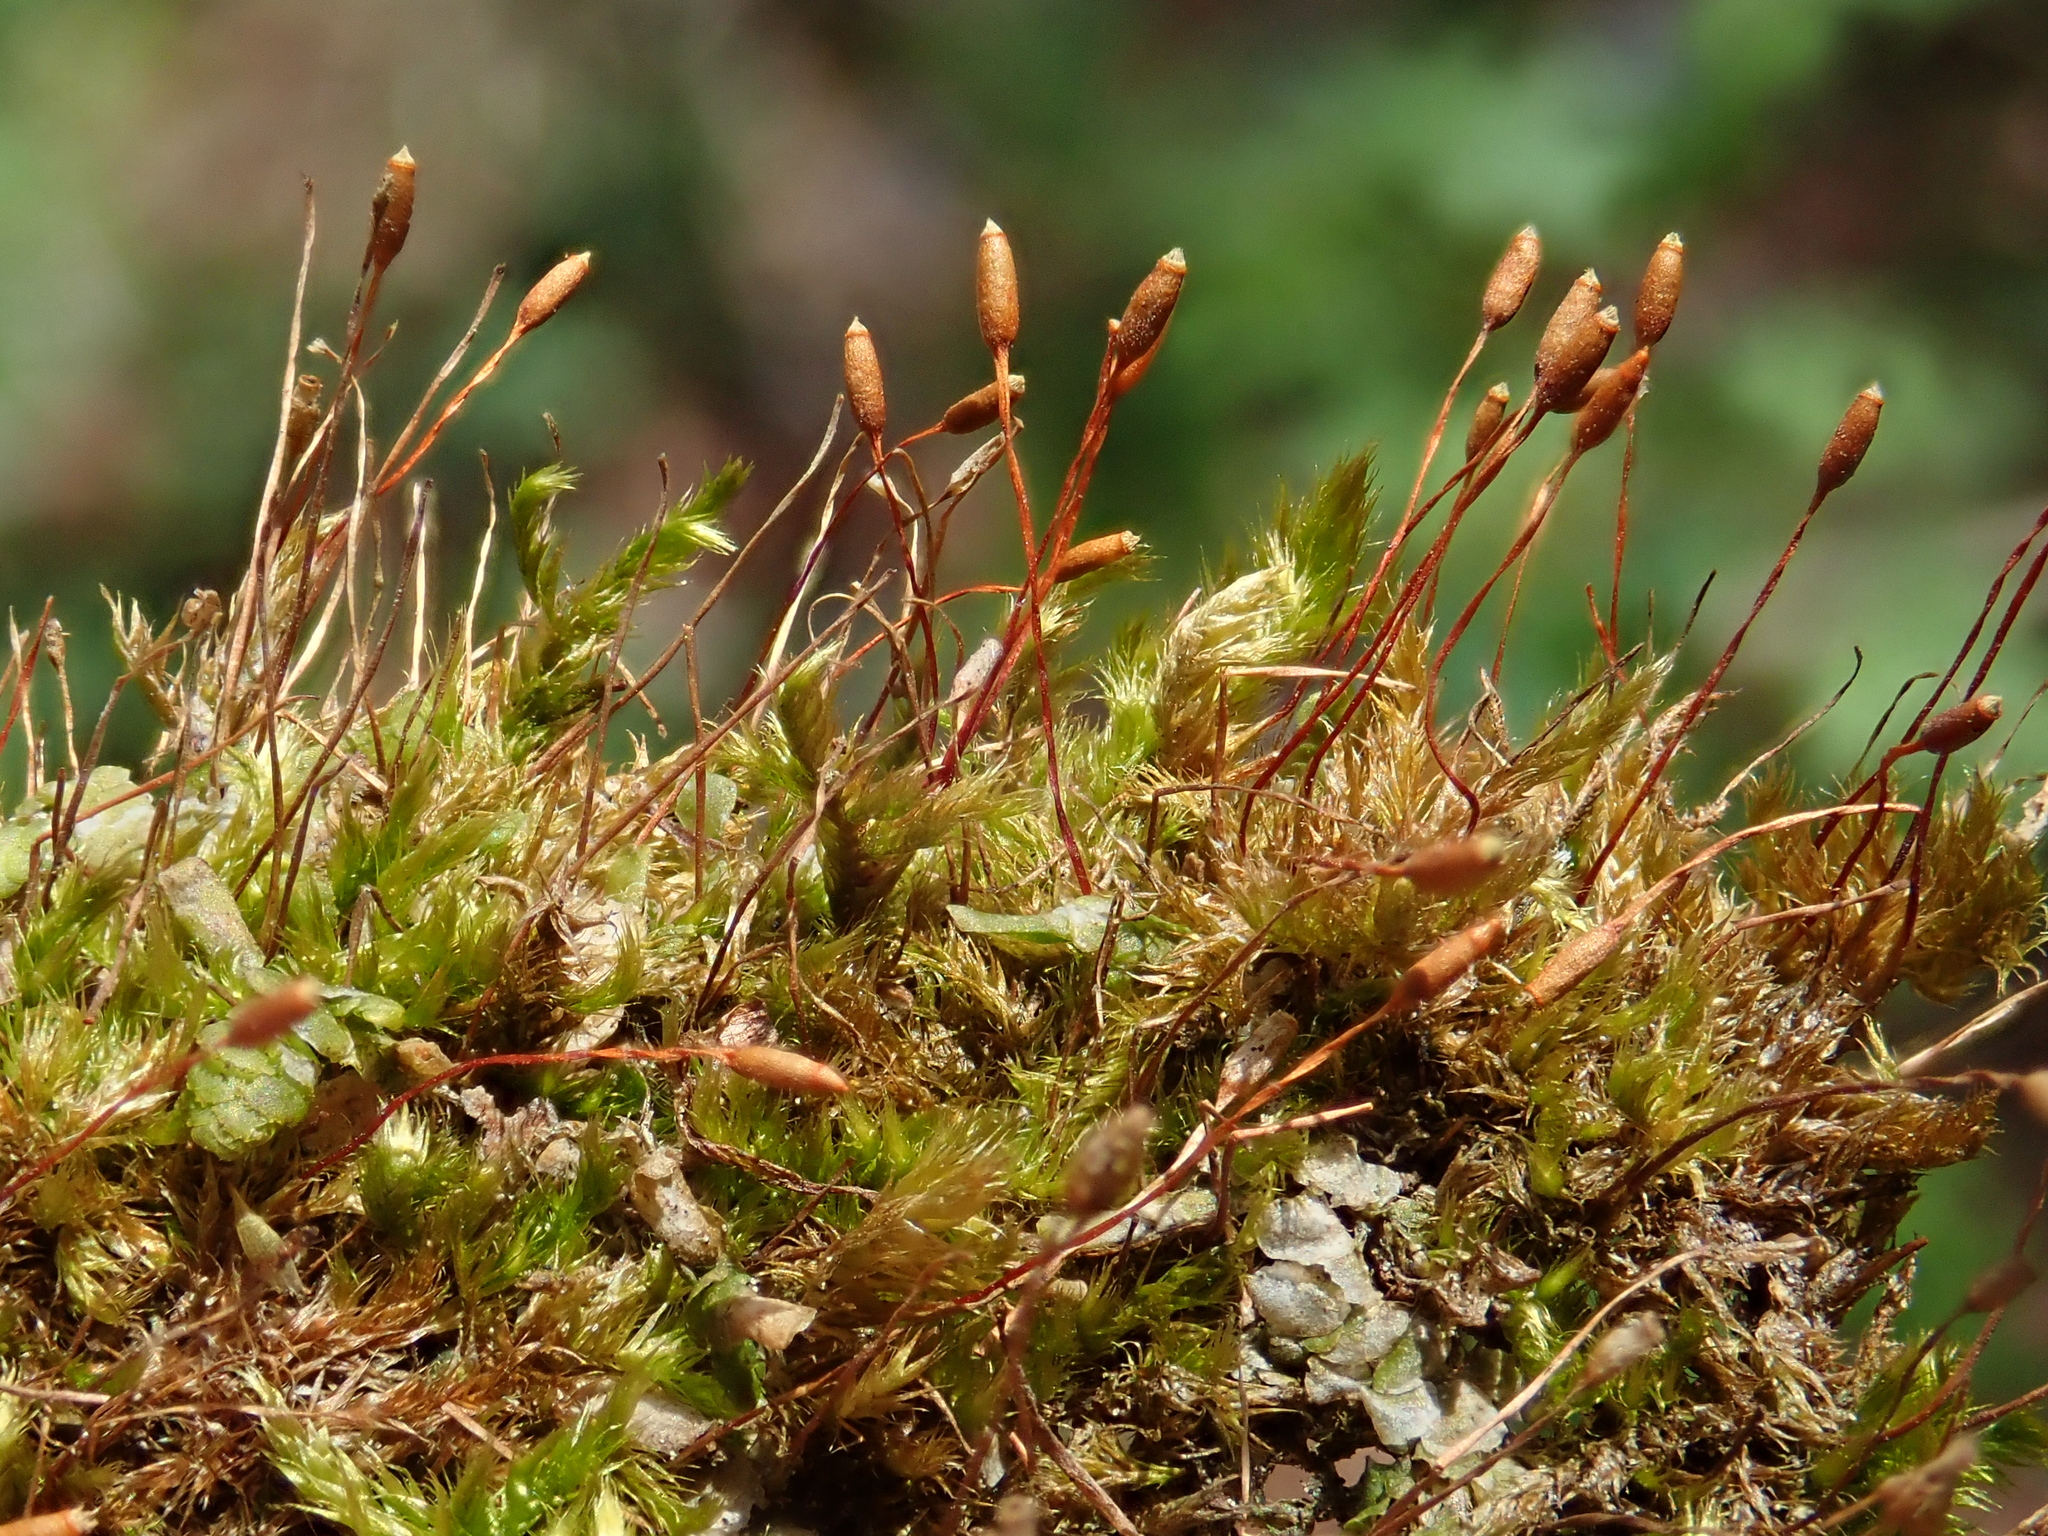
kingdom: Plantae
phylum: Bryophyta
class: Bryopsida
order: Hypnales
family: Pylaisiaceae
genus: Pylaisia
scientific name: Pylaisia polyantha
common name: Many-flowered leskea
